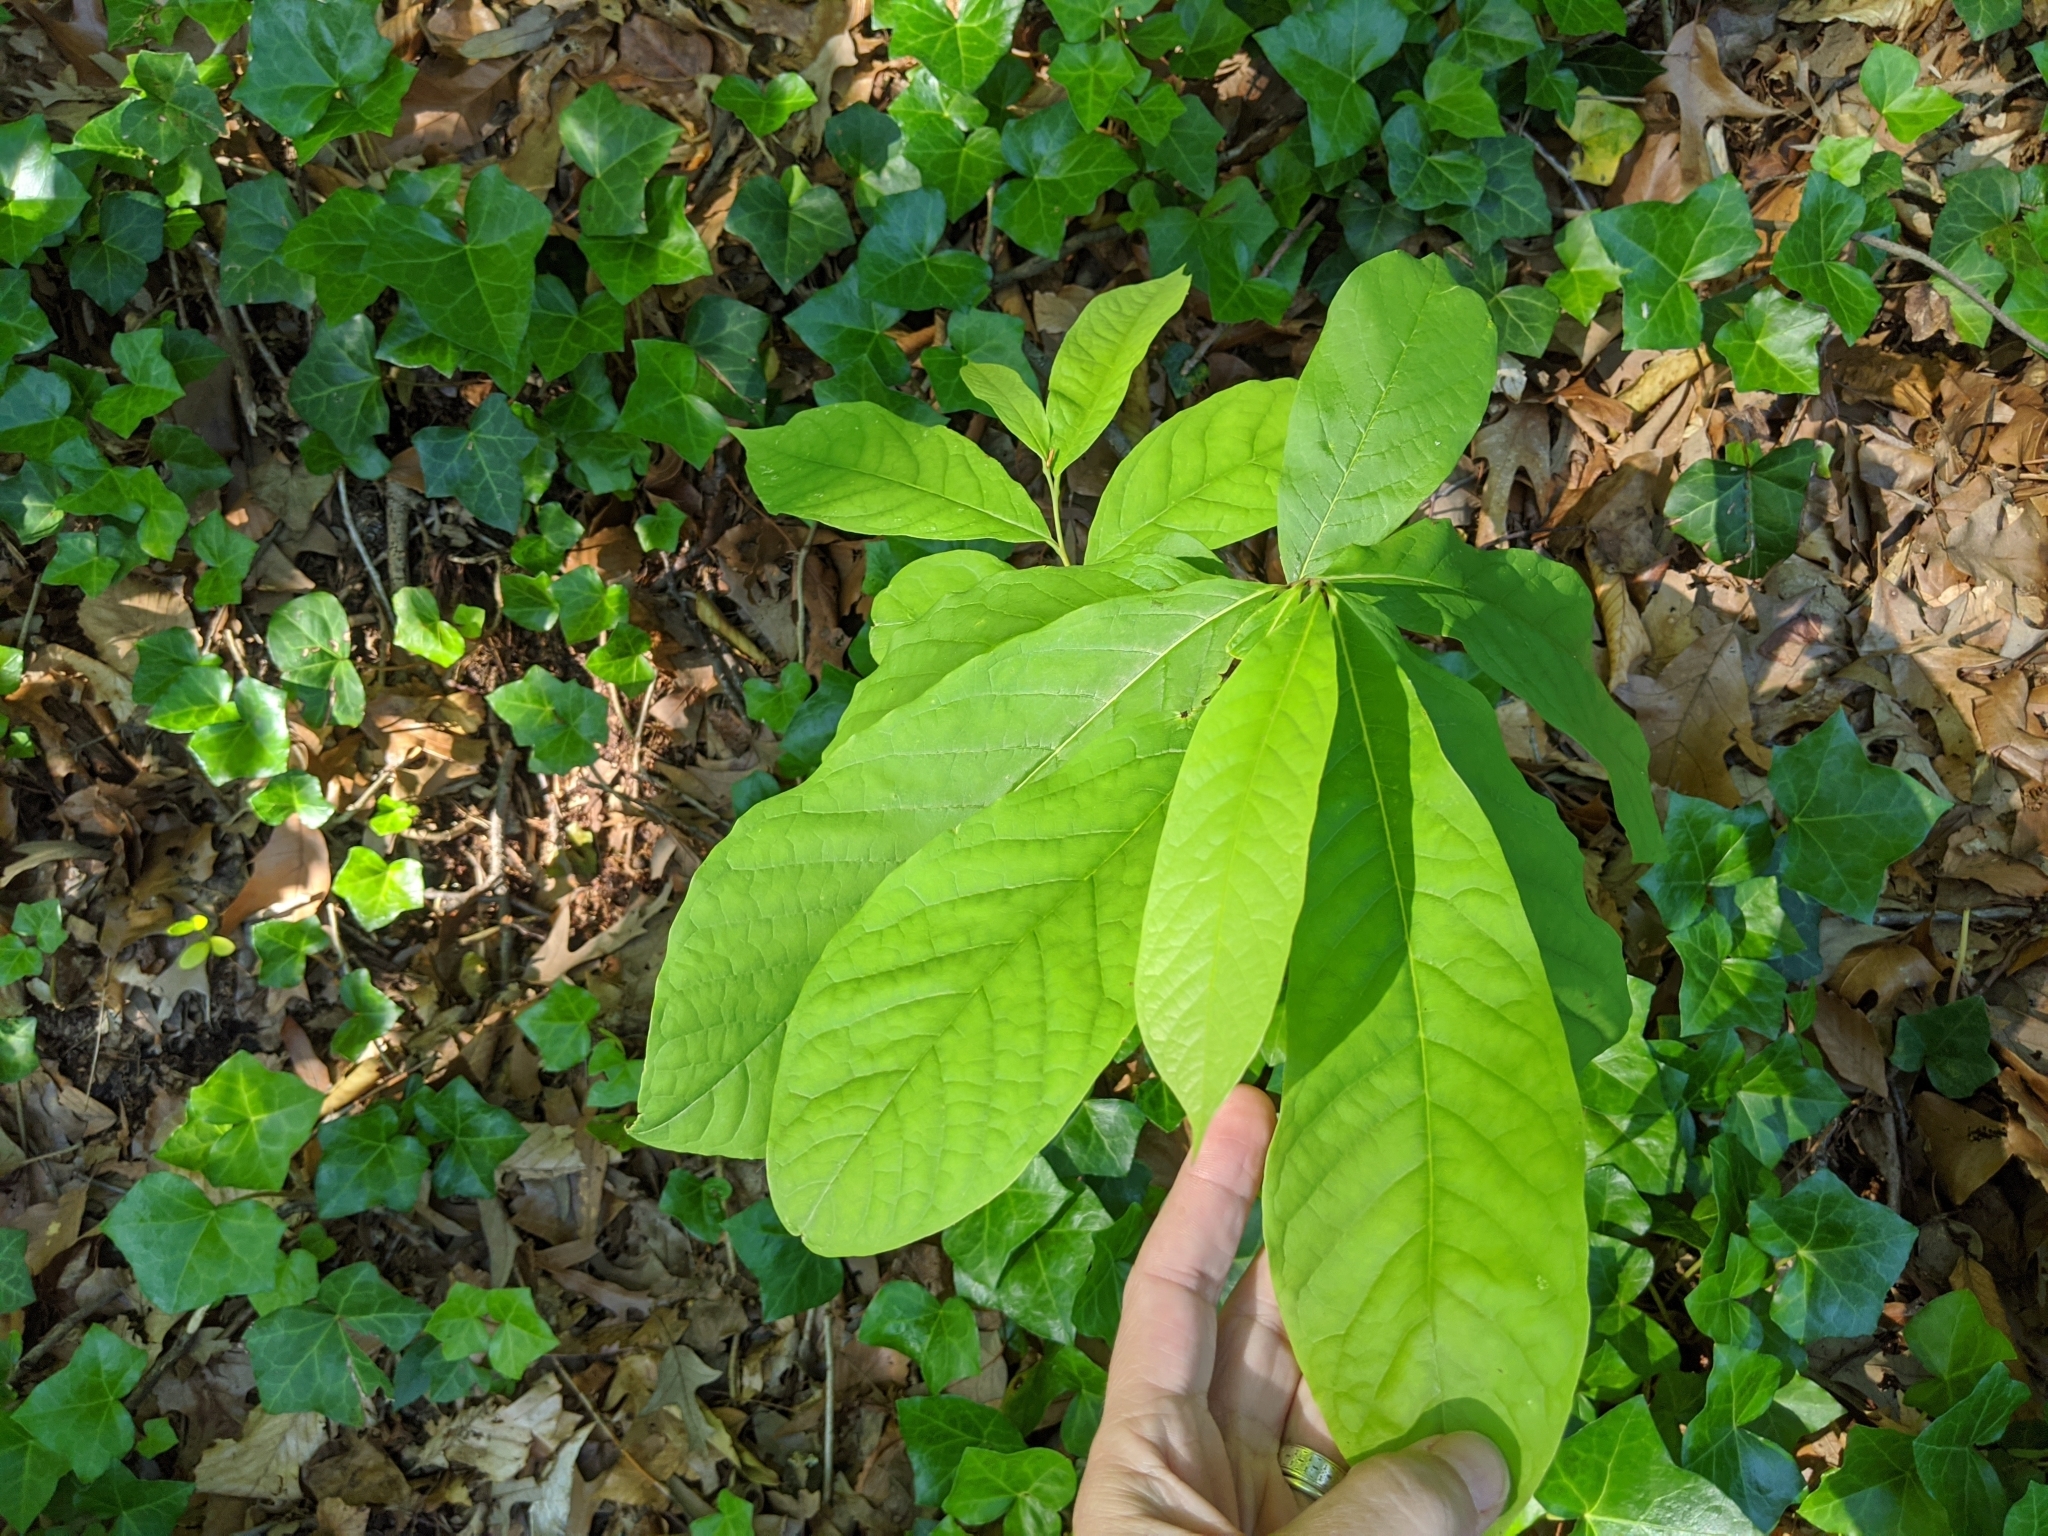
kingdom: Plantae
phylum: Tracheophyta
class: Magnoliopsida
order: Magnoliales
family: Annonaceae
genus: Asimina
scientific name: Asimina triloba
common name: Dog-banana
